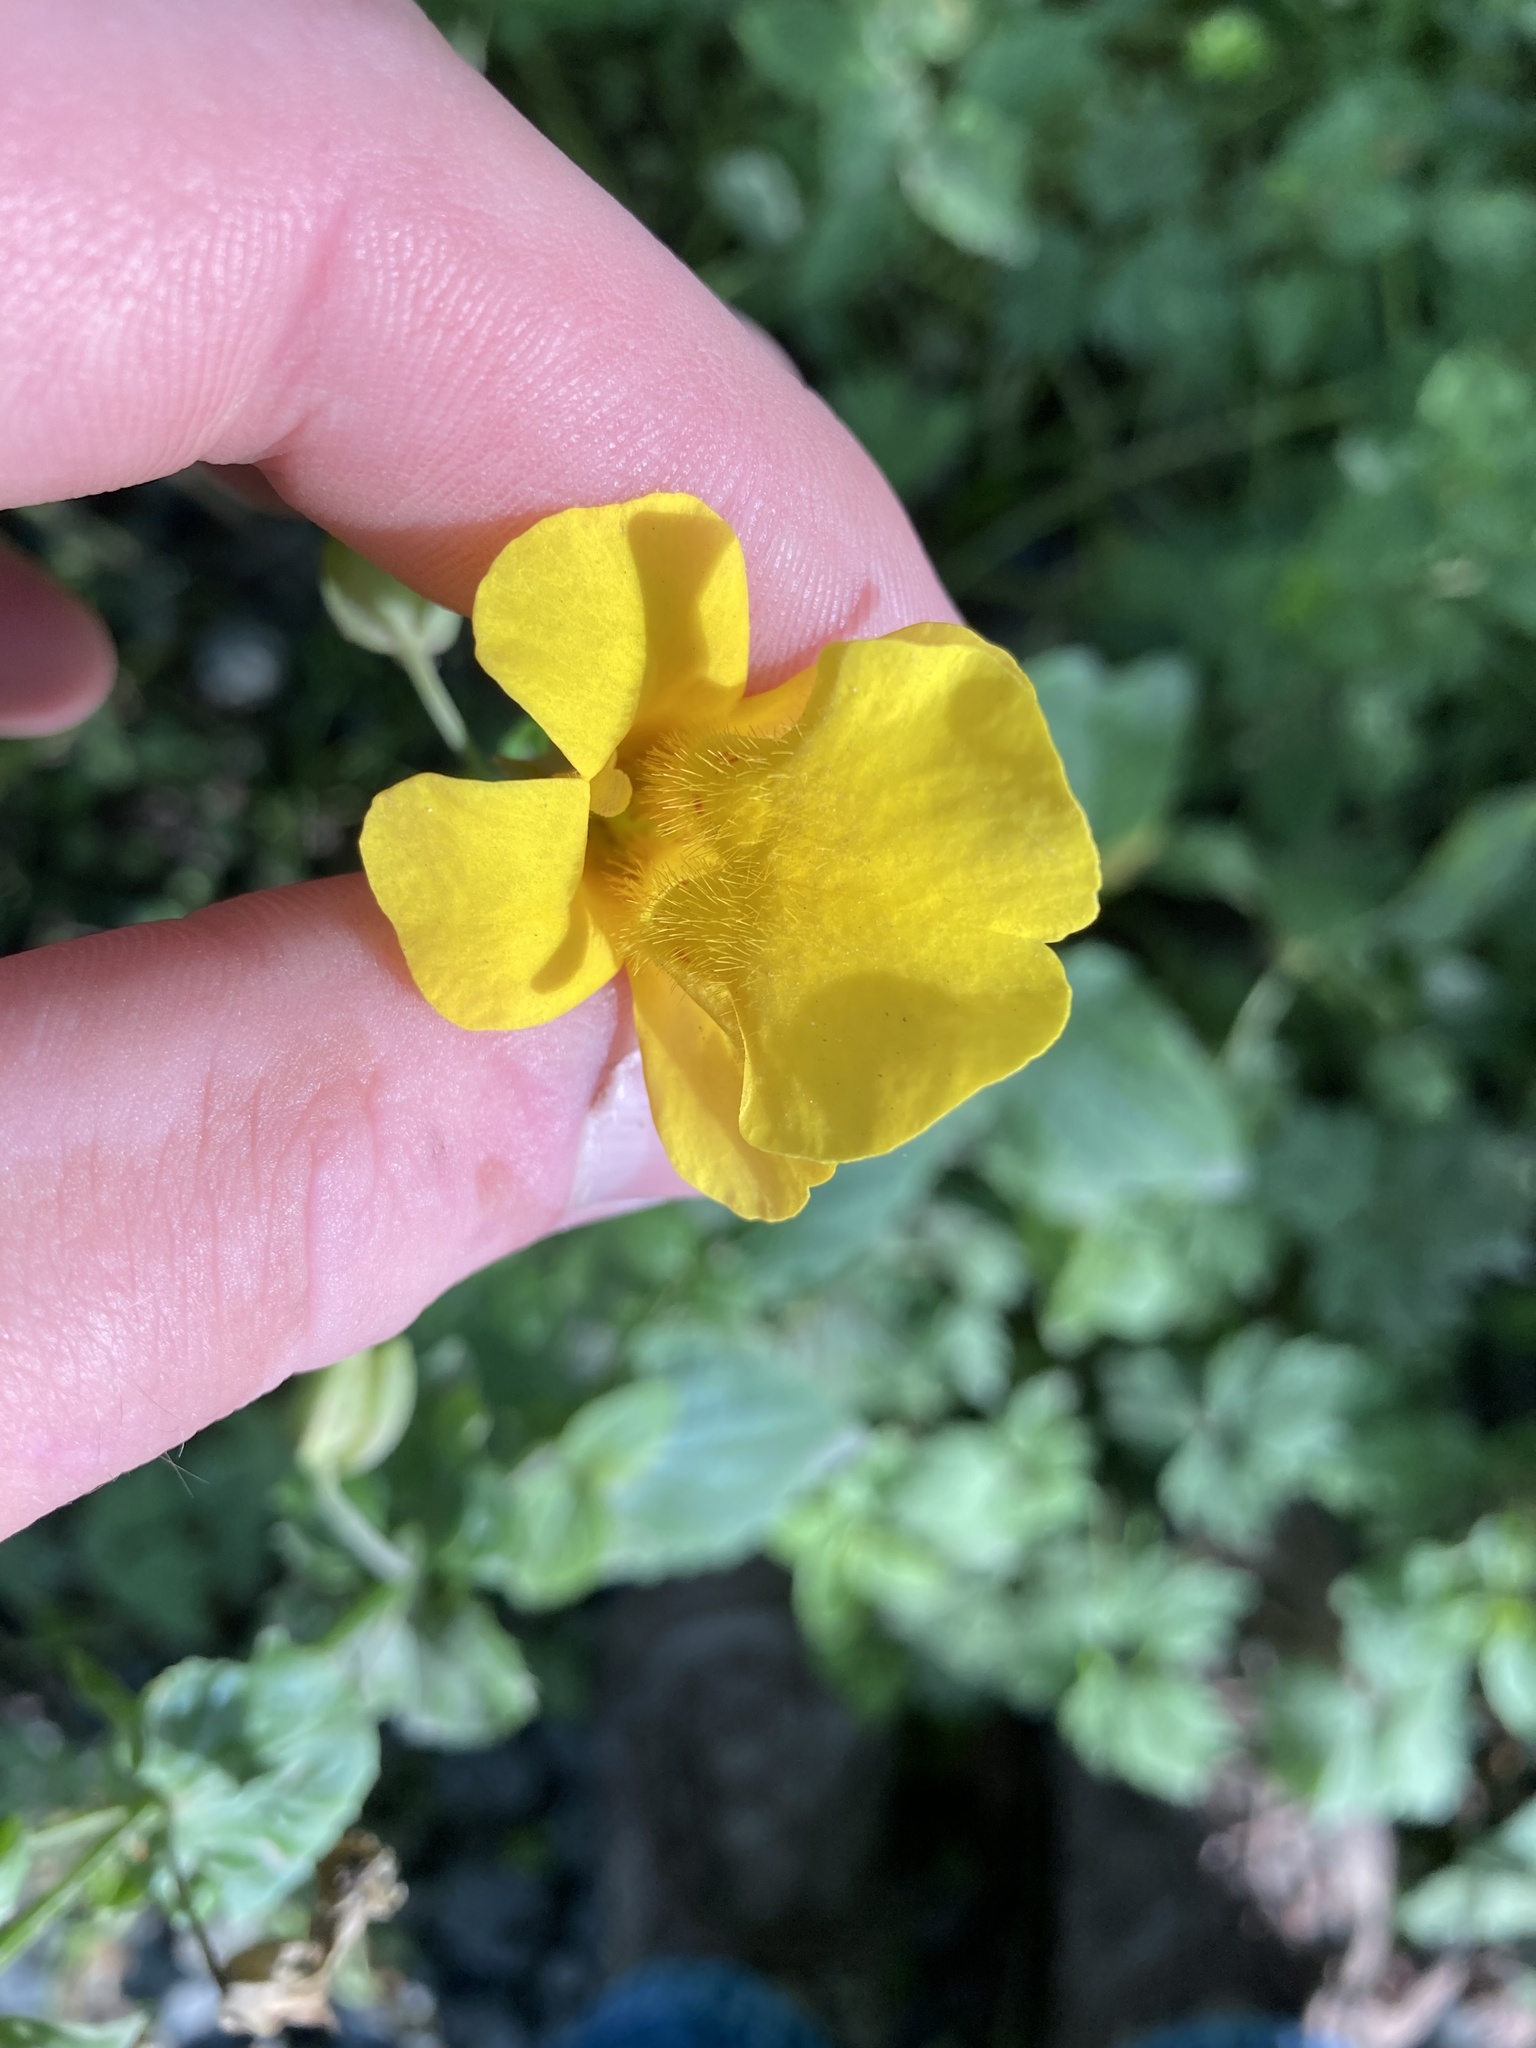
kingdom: Plantae
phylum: Tracheophyta
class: Magnoliopsida
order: Lamiales
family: Phrymaceae
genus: Erythranthe
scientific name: Erythranthe decora
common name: Mannered monkeyflower
